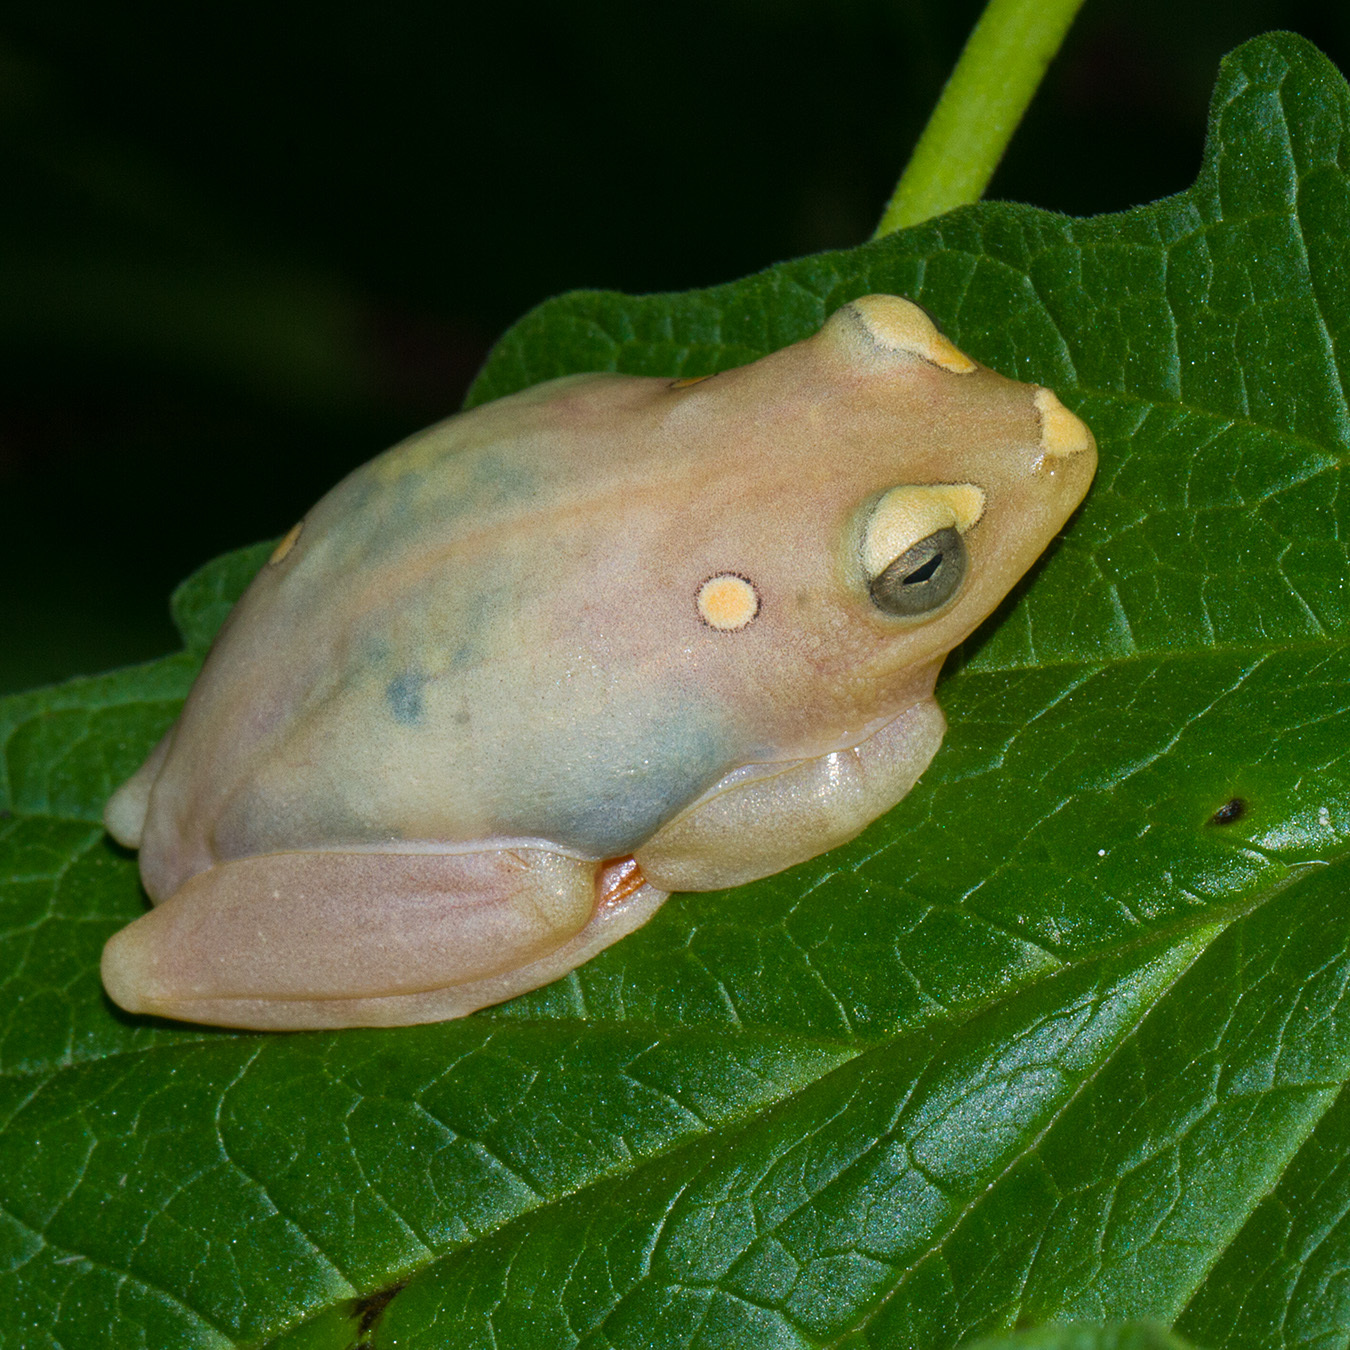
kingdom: Animalia
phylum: Chordata
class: Amphibia
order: Anura
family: Hyperoliidae
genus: Hyperolius
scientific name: Hyperolius argus
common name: Argus reed frog
